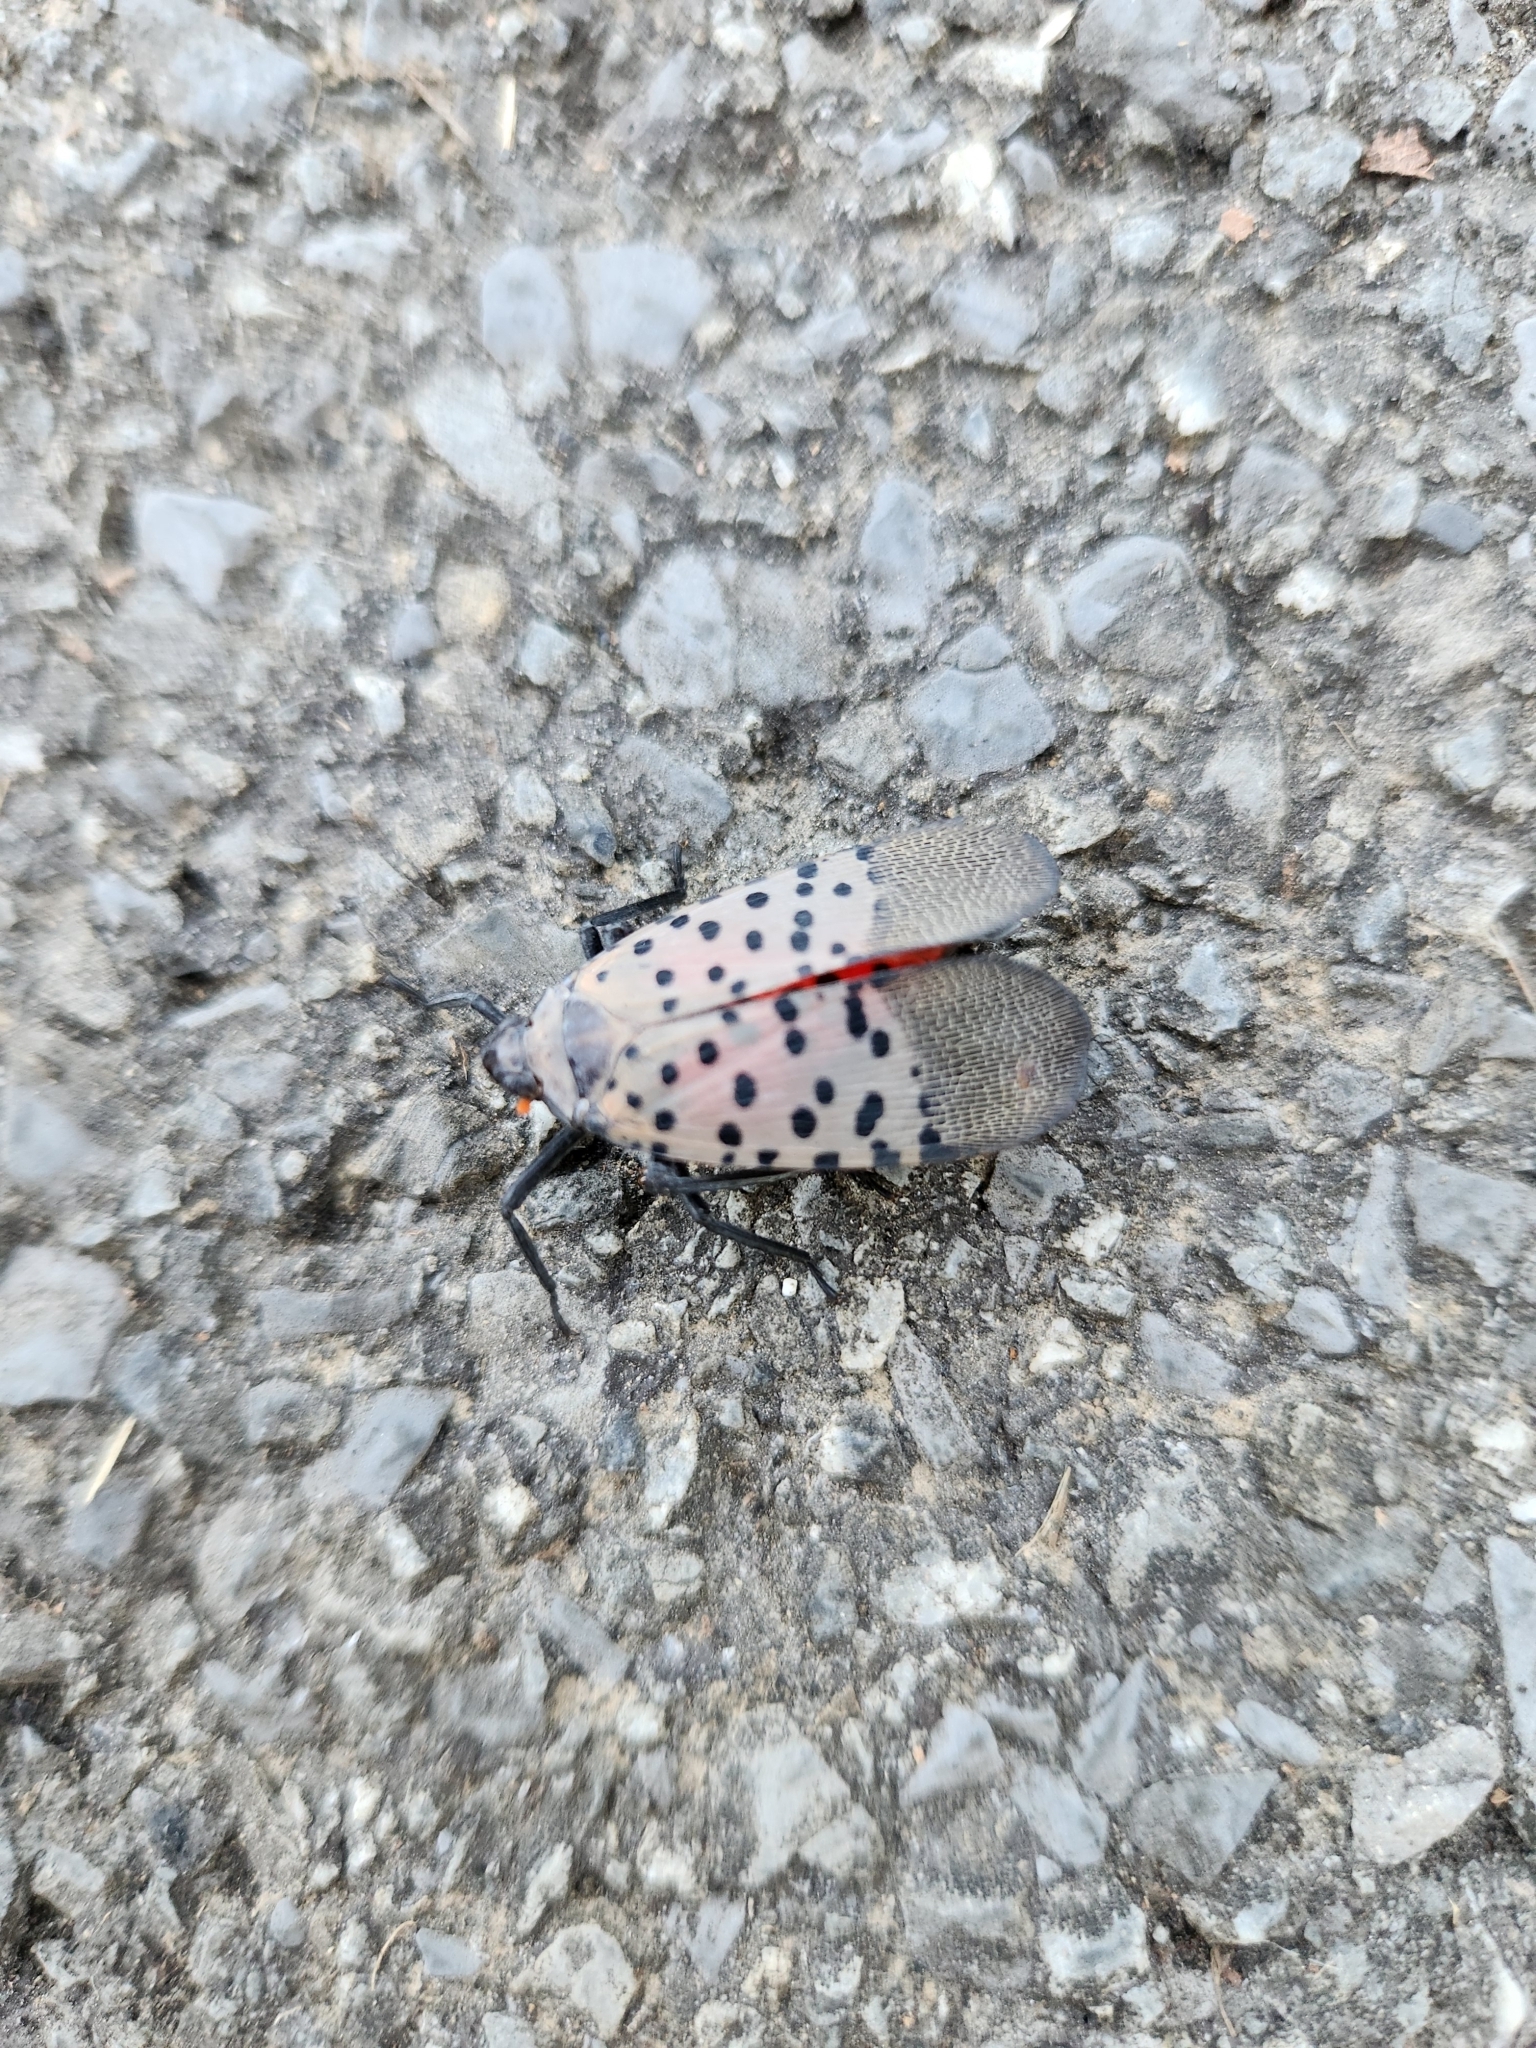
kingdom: Animalia
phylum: Arthropoda
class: Insecta
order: Hemiptera
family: Fulgoridae
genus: Lycorma
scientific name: Lycorma delicatula
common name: Spotted lanternfly
